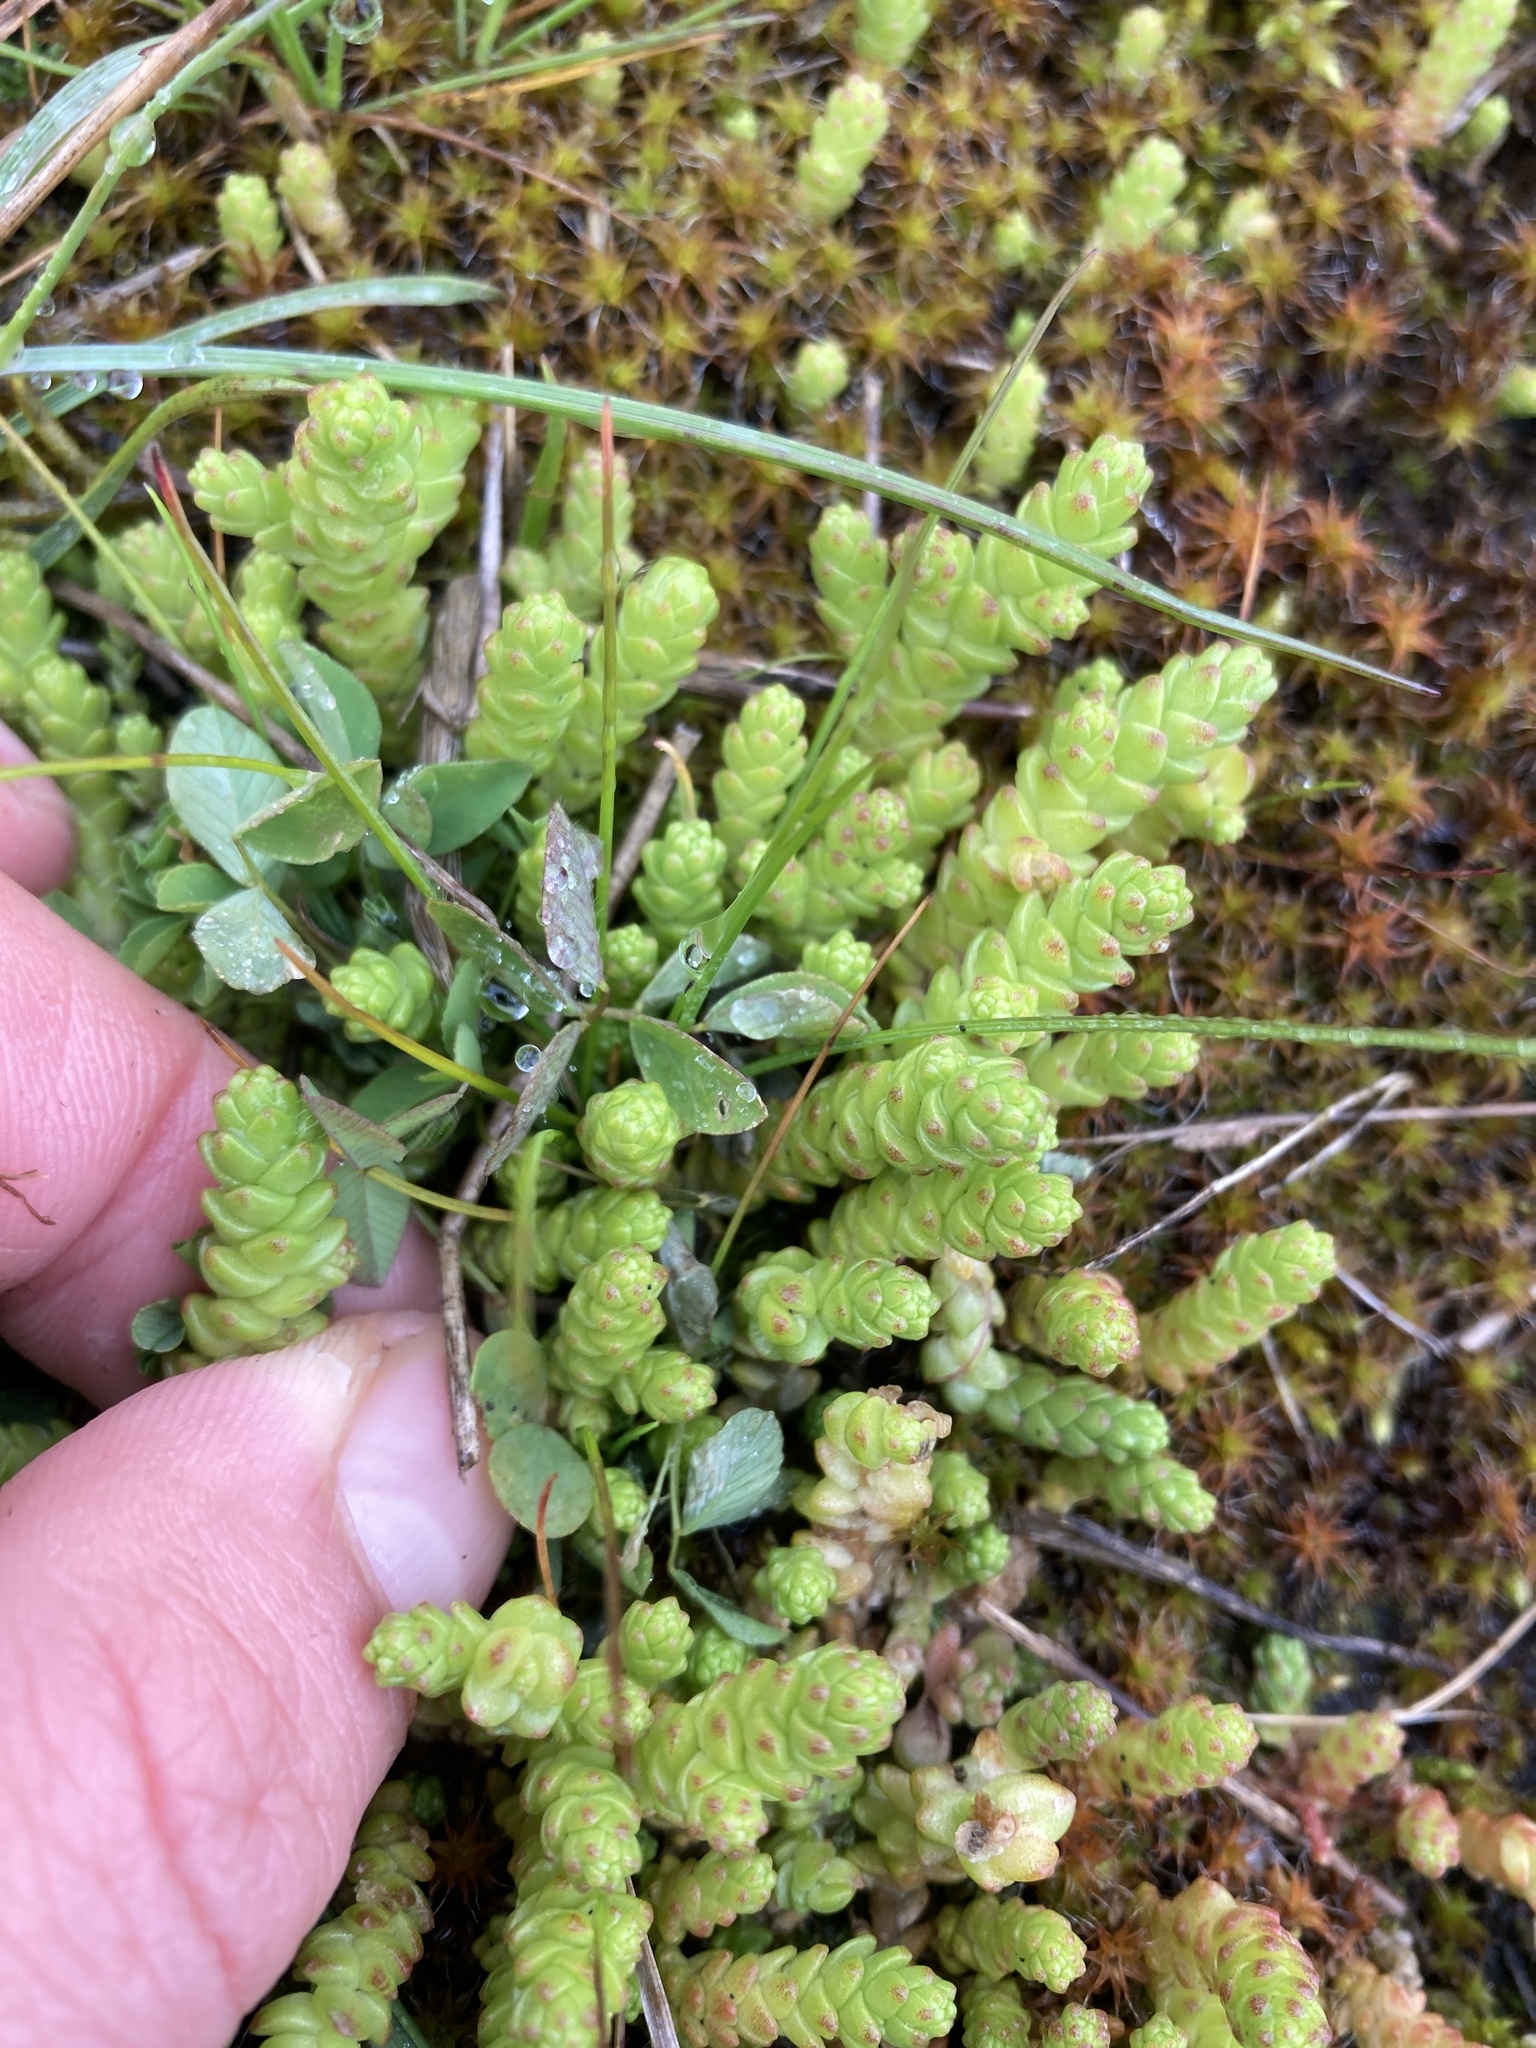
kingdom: Plantae
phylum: Tracheophyta
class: Magnoliopsida
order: Saxifragales
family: Crassulaceae
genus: Sedum
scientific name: Sedum acre
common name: Biting stonecrop
